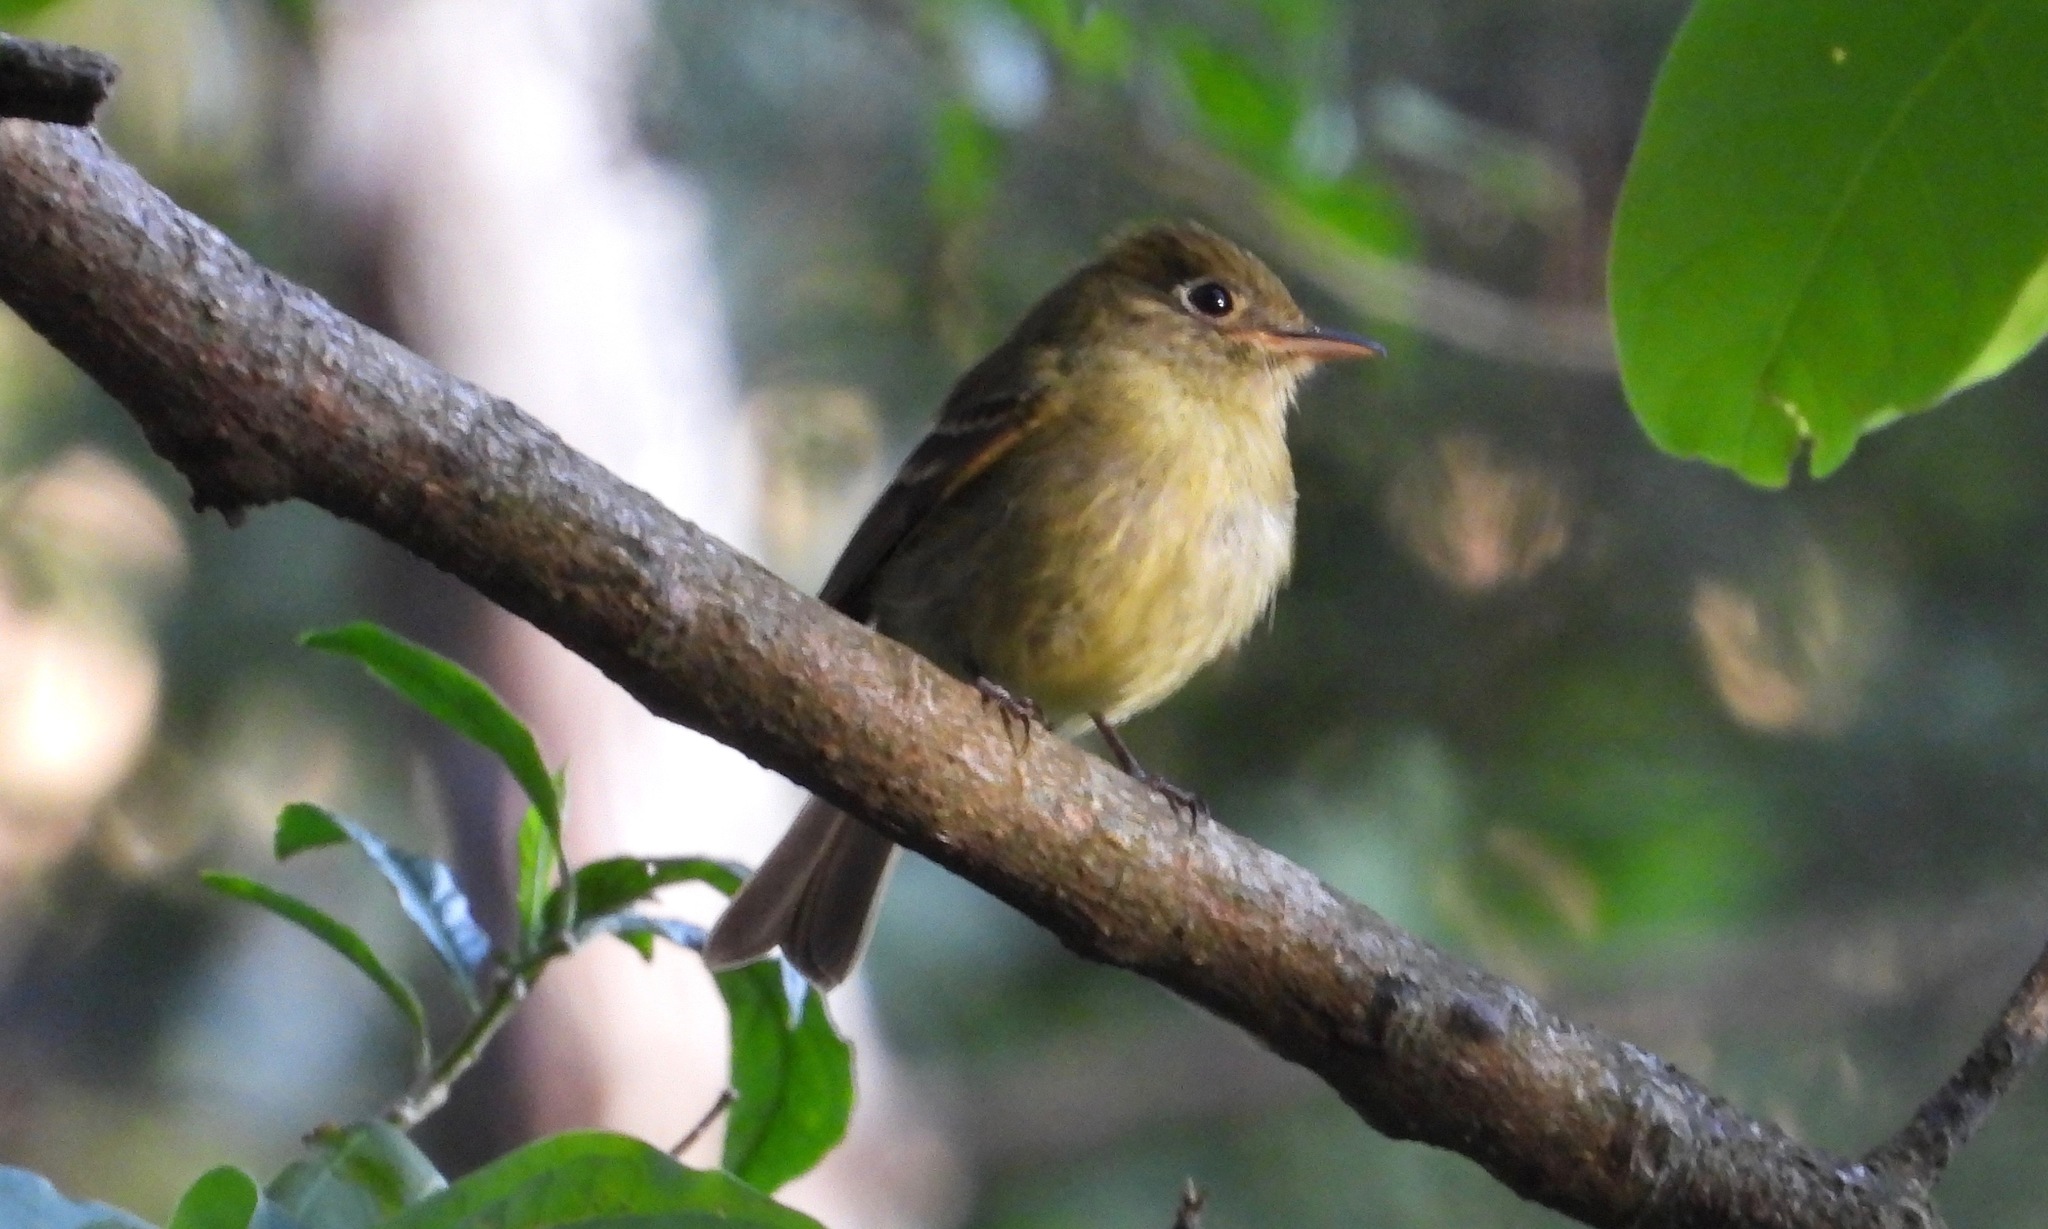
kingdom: Animalia
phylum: Chordata
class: Aves
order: Passeriformes
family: Tyrannidae
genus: Empidonax
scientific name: Empidonax flavescens
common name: Yellowish flycatcher
